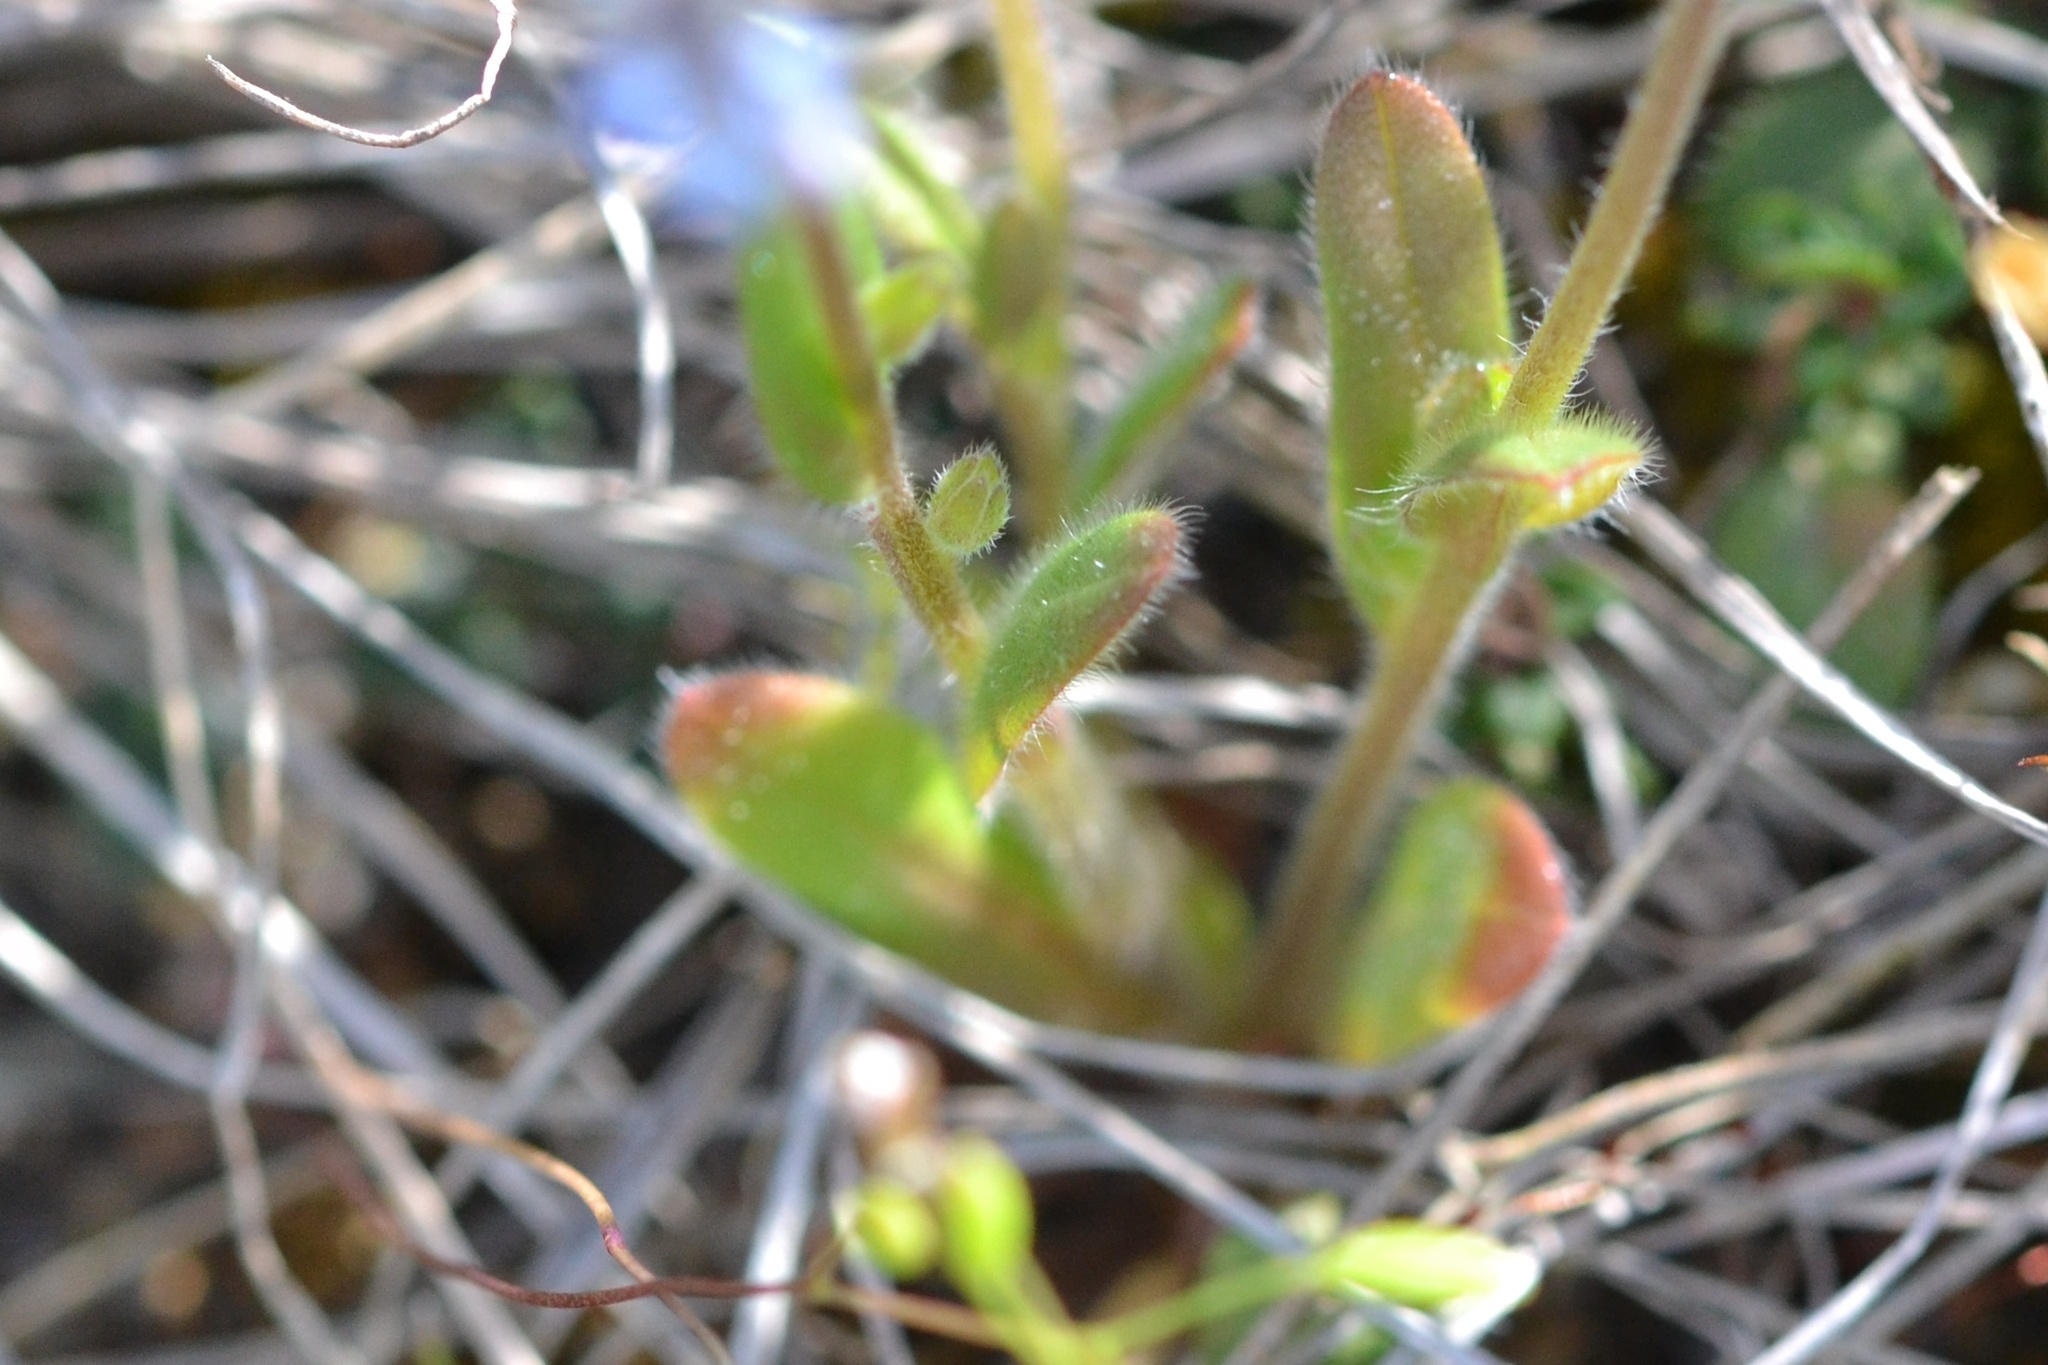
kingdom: Plantae
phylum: Tracheophyta
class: Magnoliopsida
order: Boraginales
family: Boraginaceae
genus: Myosotis
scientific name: Myosotis stricta
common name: Strict forget-me-not
